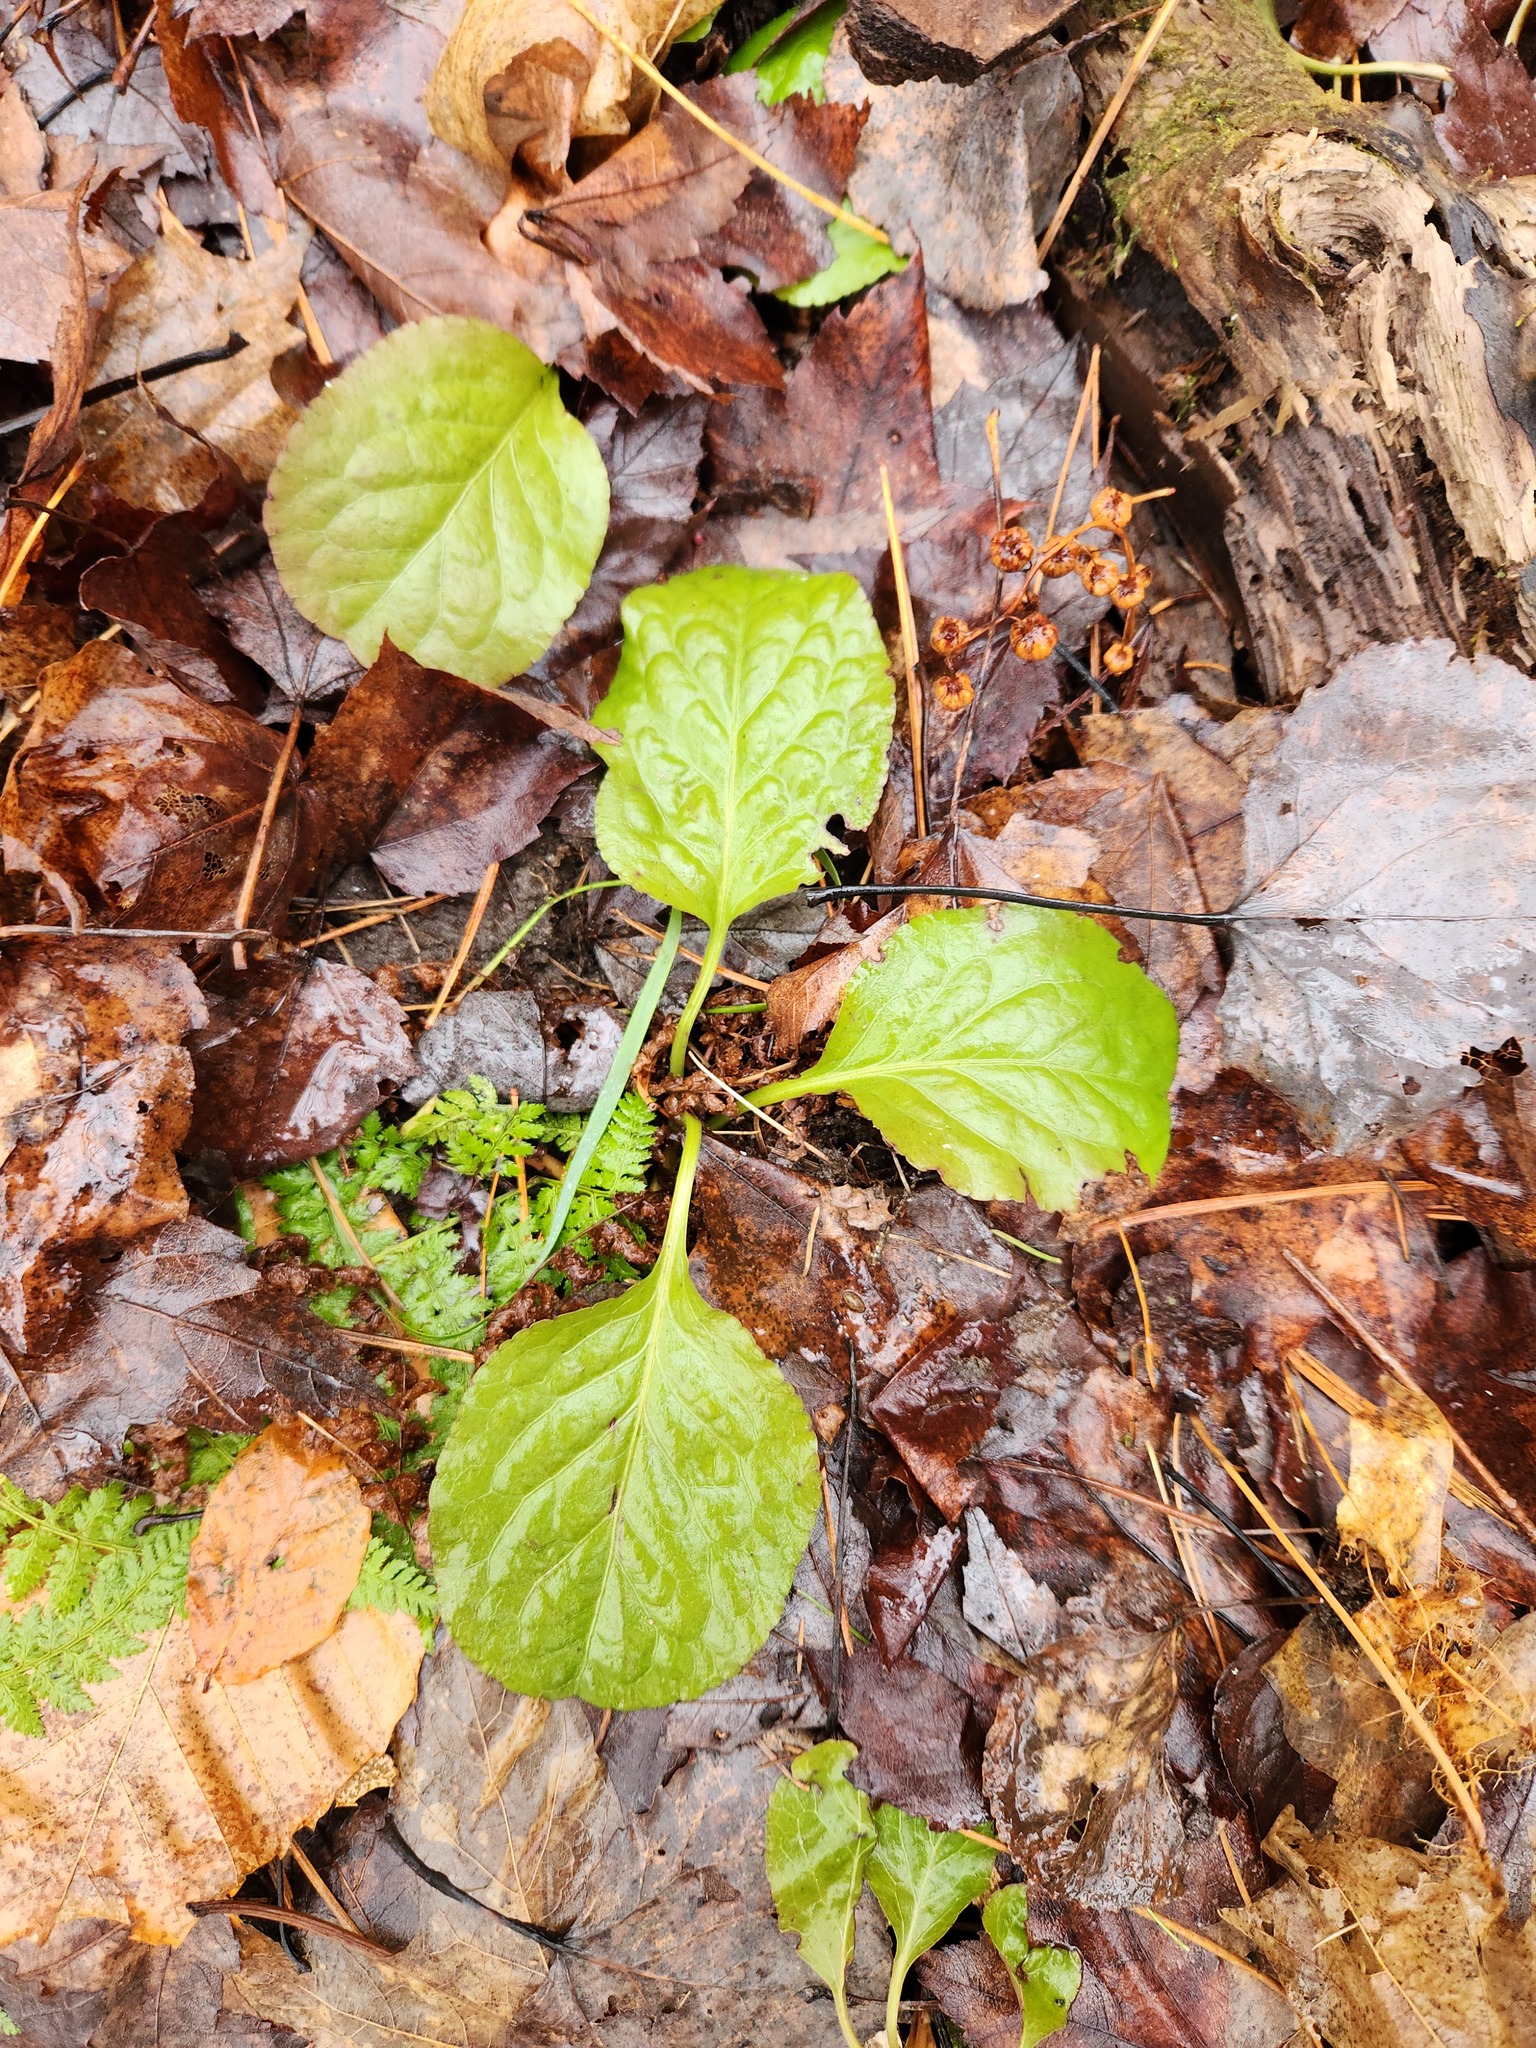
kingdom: Plantae
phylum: Tracheophyta
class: Magnoliopsida
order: Ericales
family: Ericaceae
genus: Pyrola
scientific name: Pyrola elliptica
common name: Shinleaf
